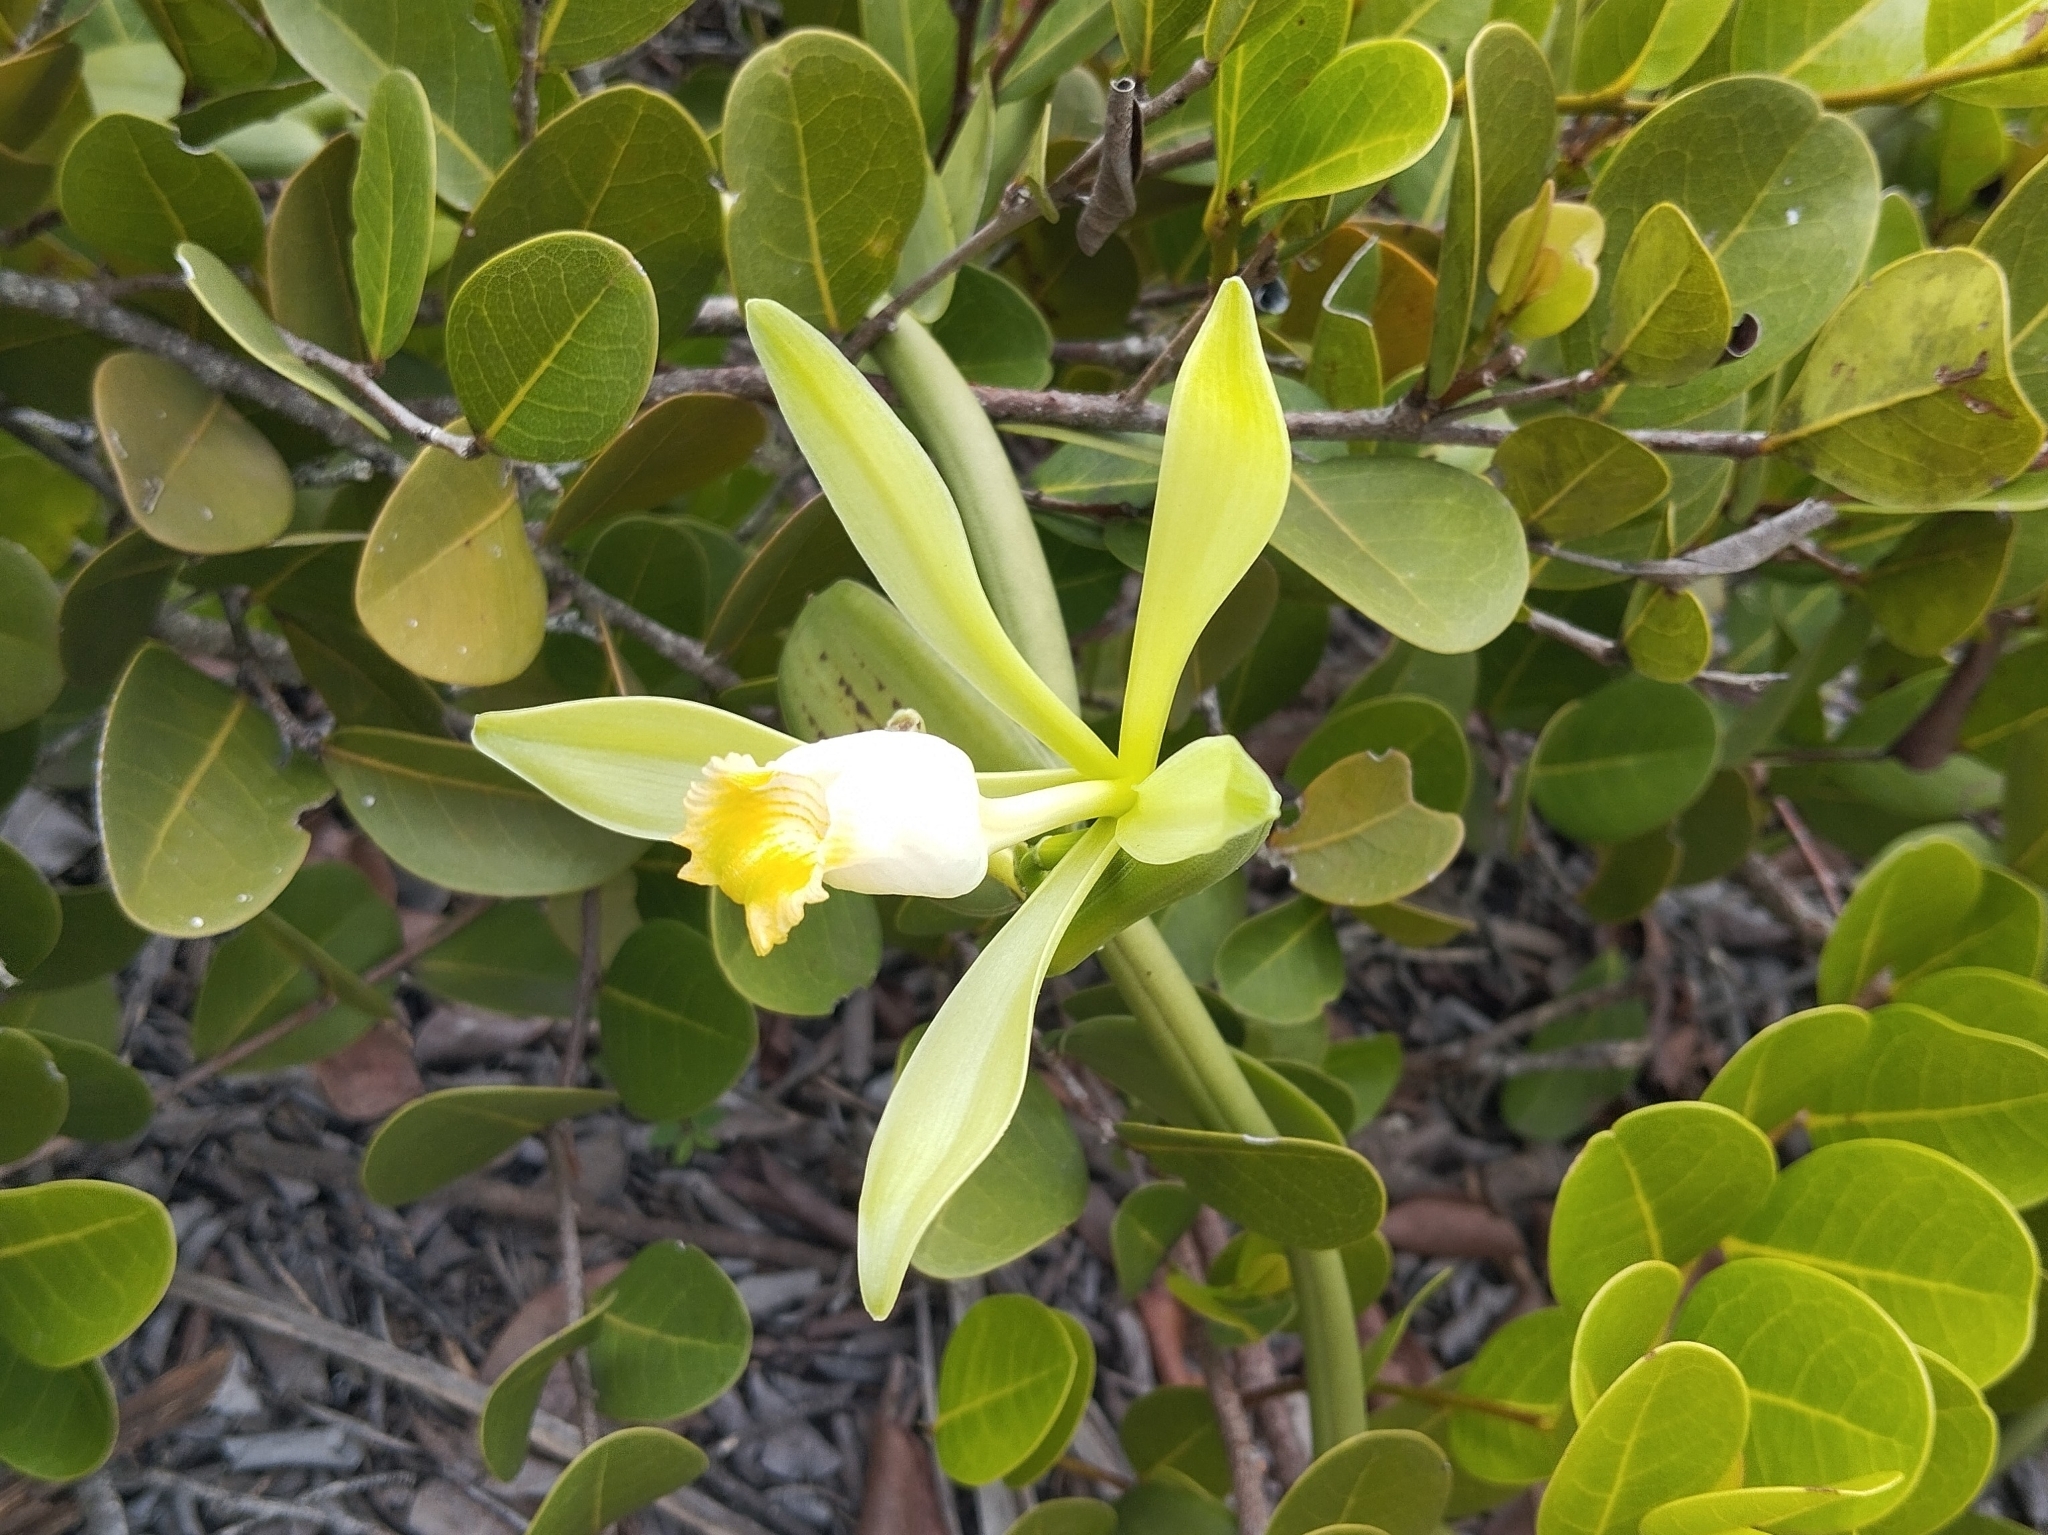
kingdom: Plantae
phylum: Tracheophyta
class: Liliopsida
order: Asparagales
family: Orchidaceae
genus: Vanilla
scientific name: Vanilla phaeantha
